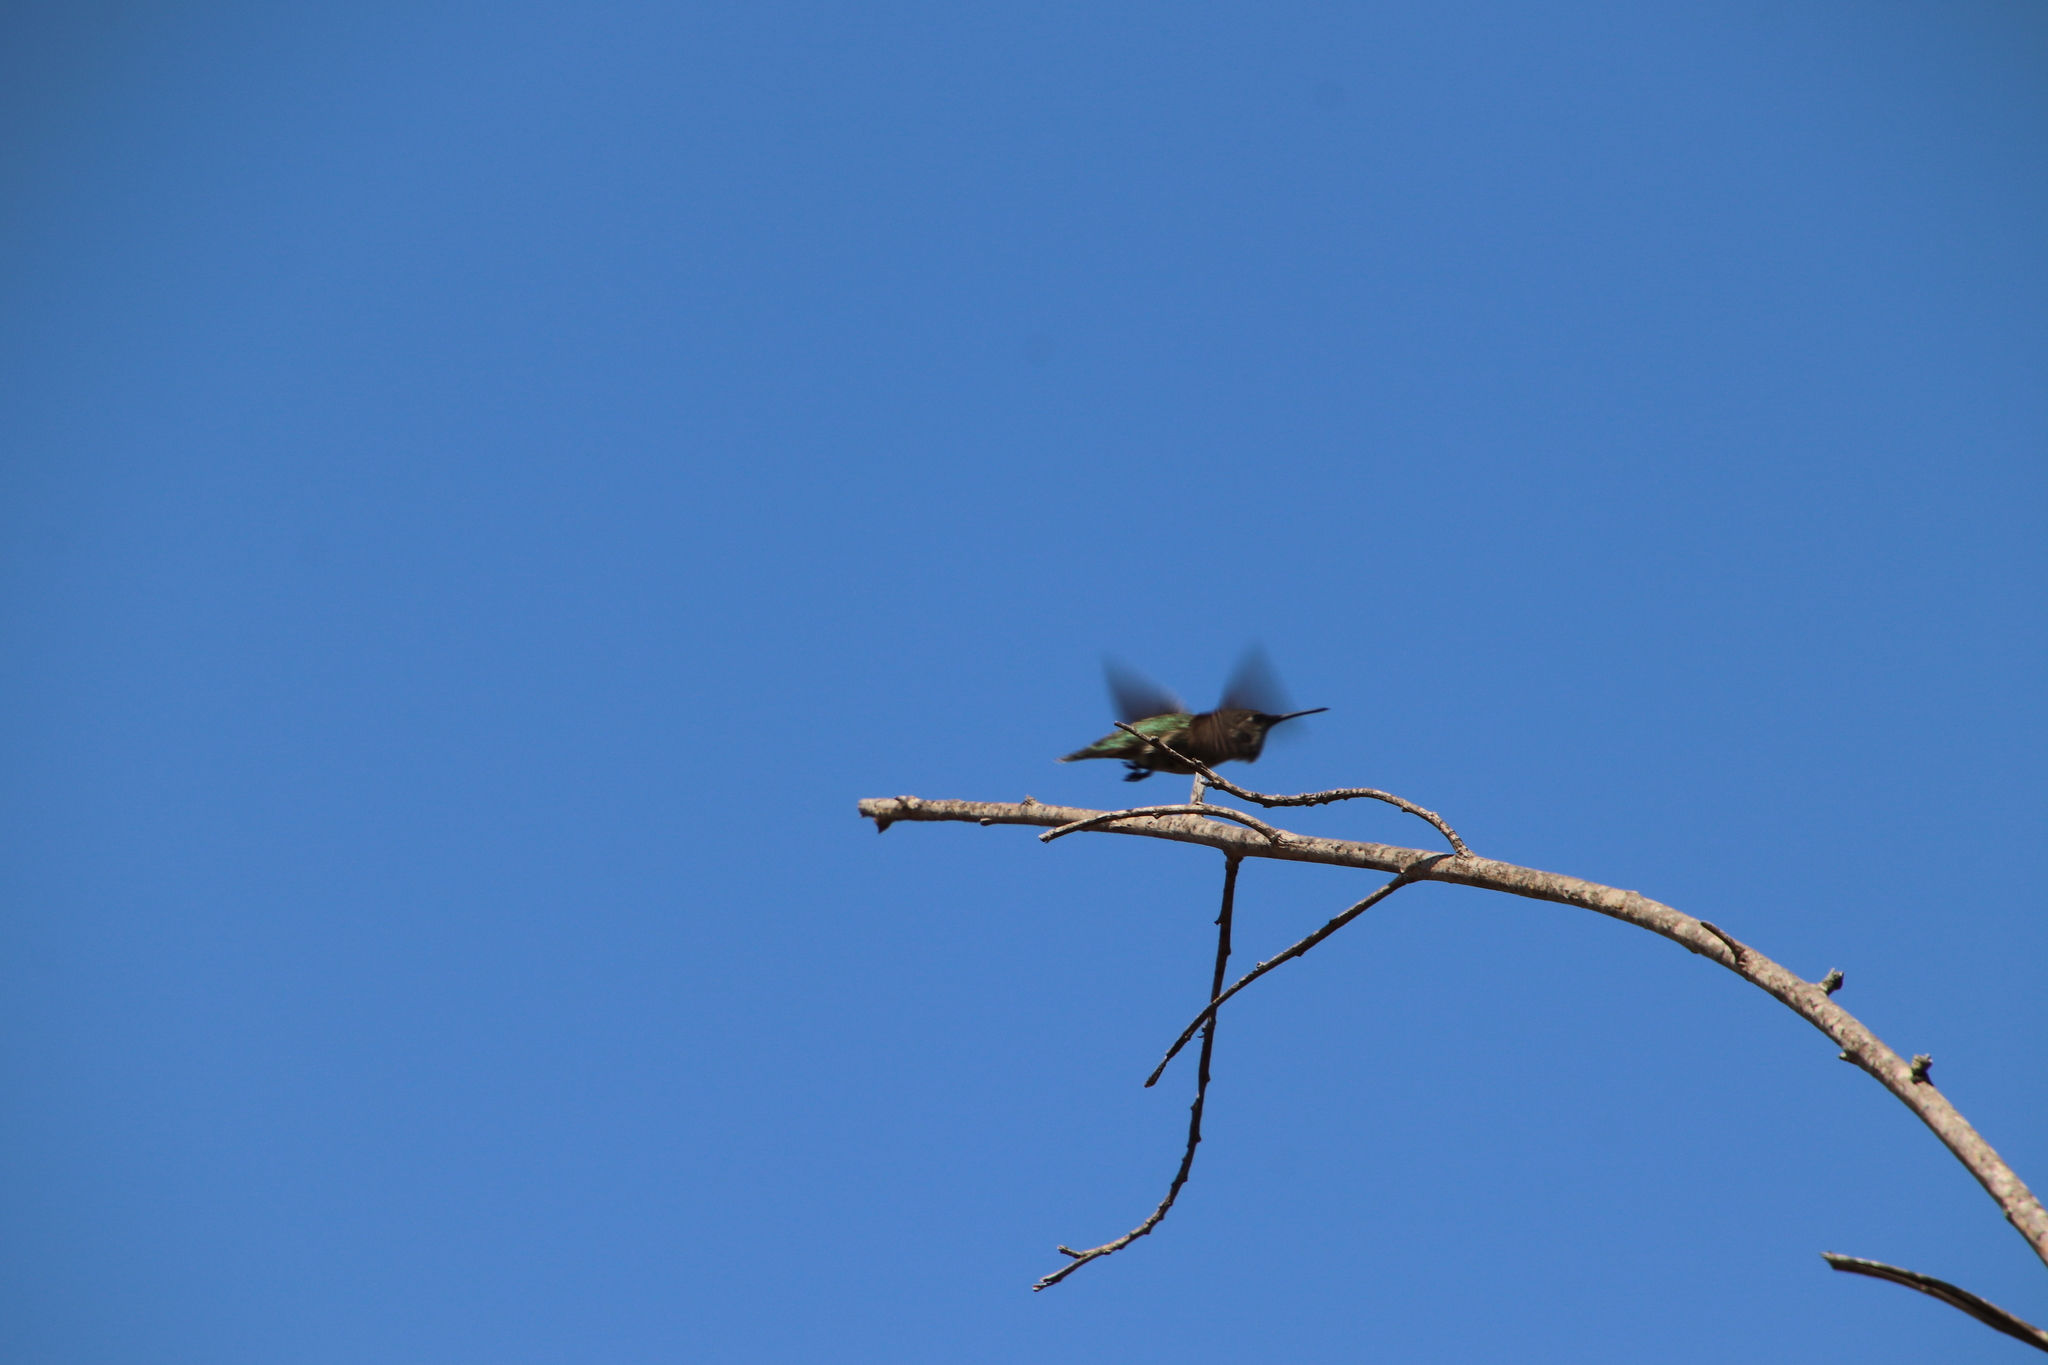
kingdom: Animalia
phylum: Chordata
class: Aves
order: Apodiformes
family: Trochilidae
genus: Calypte
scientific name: Calypte anna
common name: Anna's hummingbird
